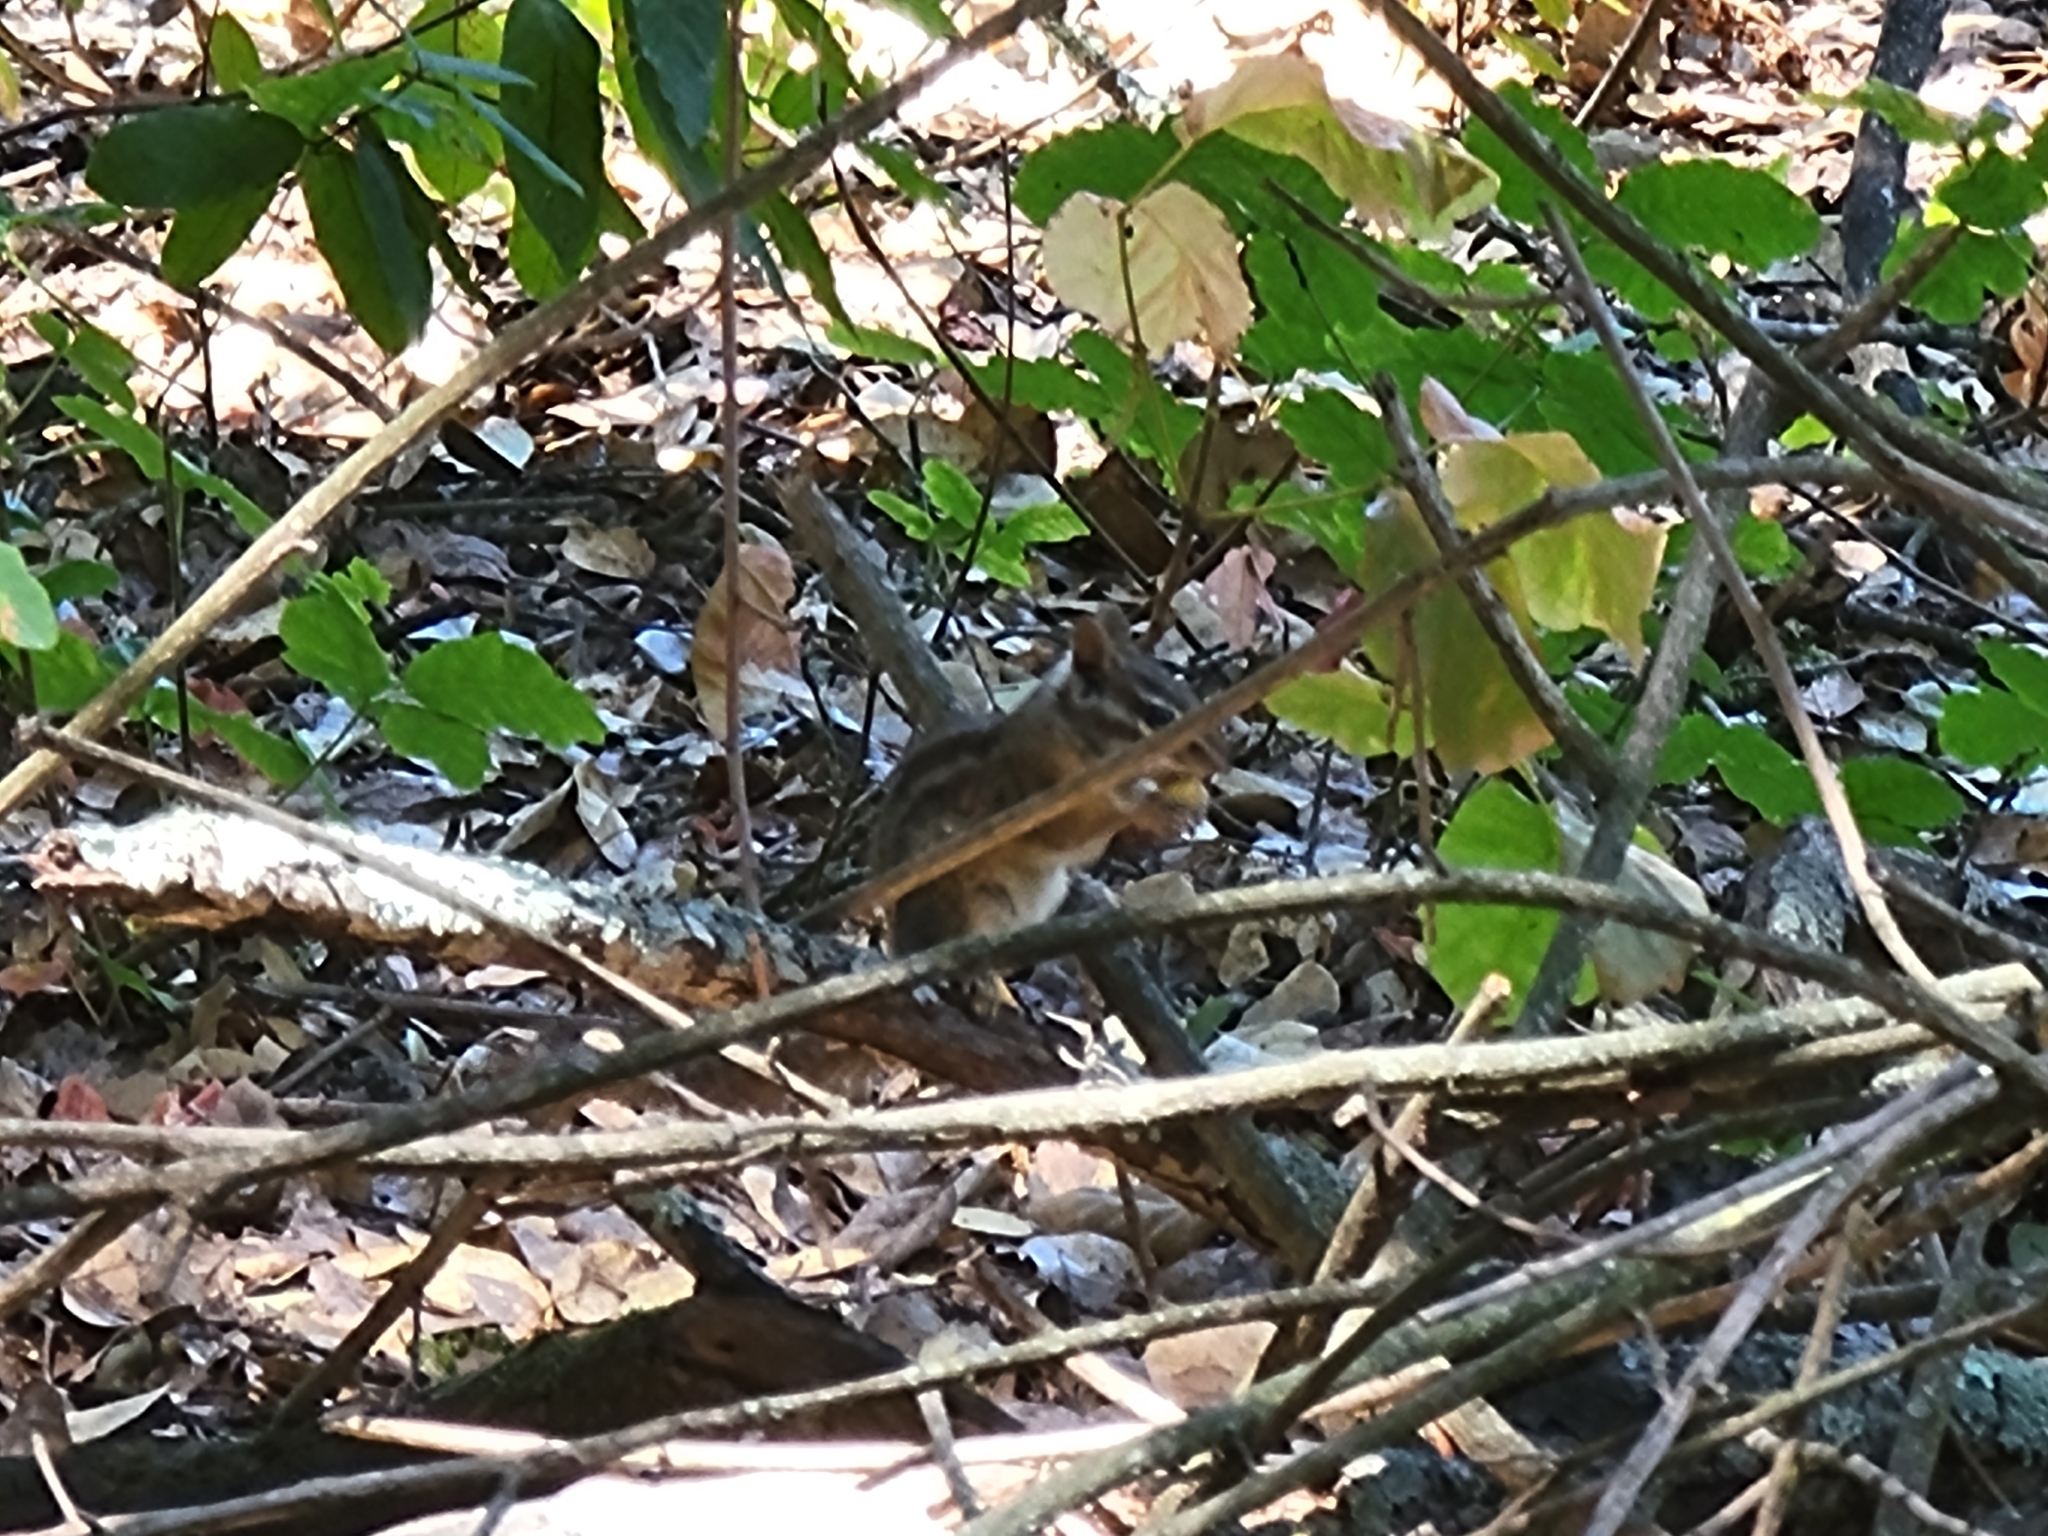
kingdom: Animalia
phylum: Chordata
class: Mammalia
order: Rodentia
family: Sciuridae
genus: Tamias
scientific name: Tamias merriami
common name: Merriam's chipmunk
